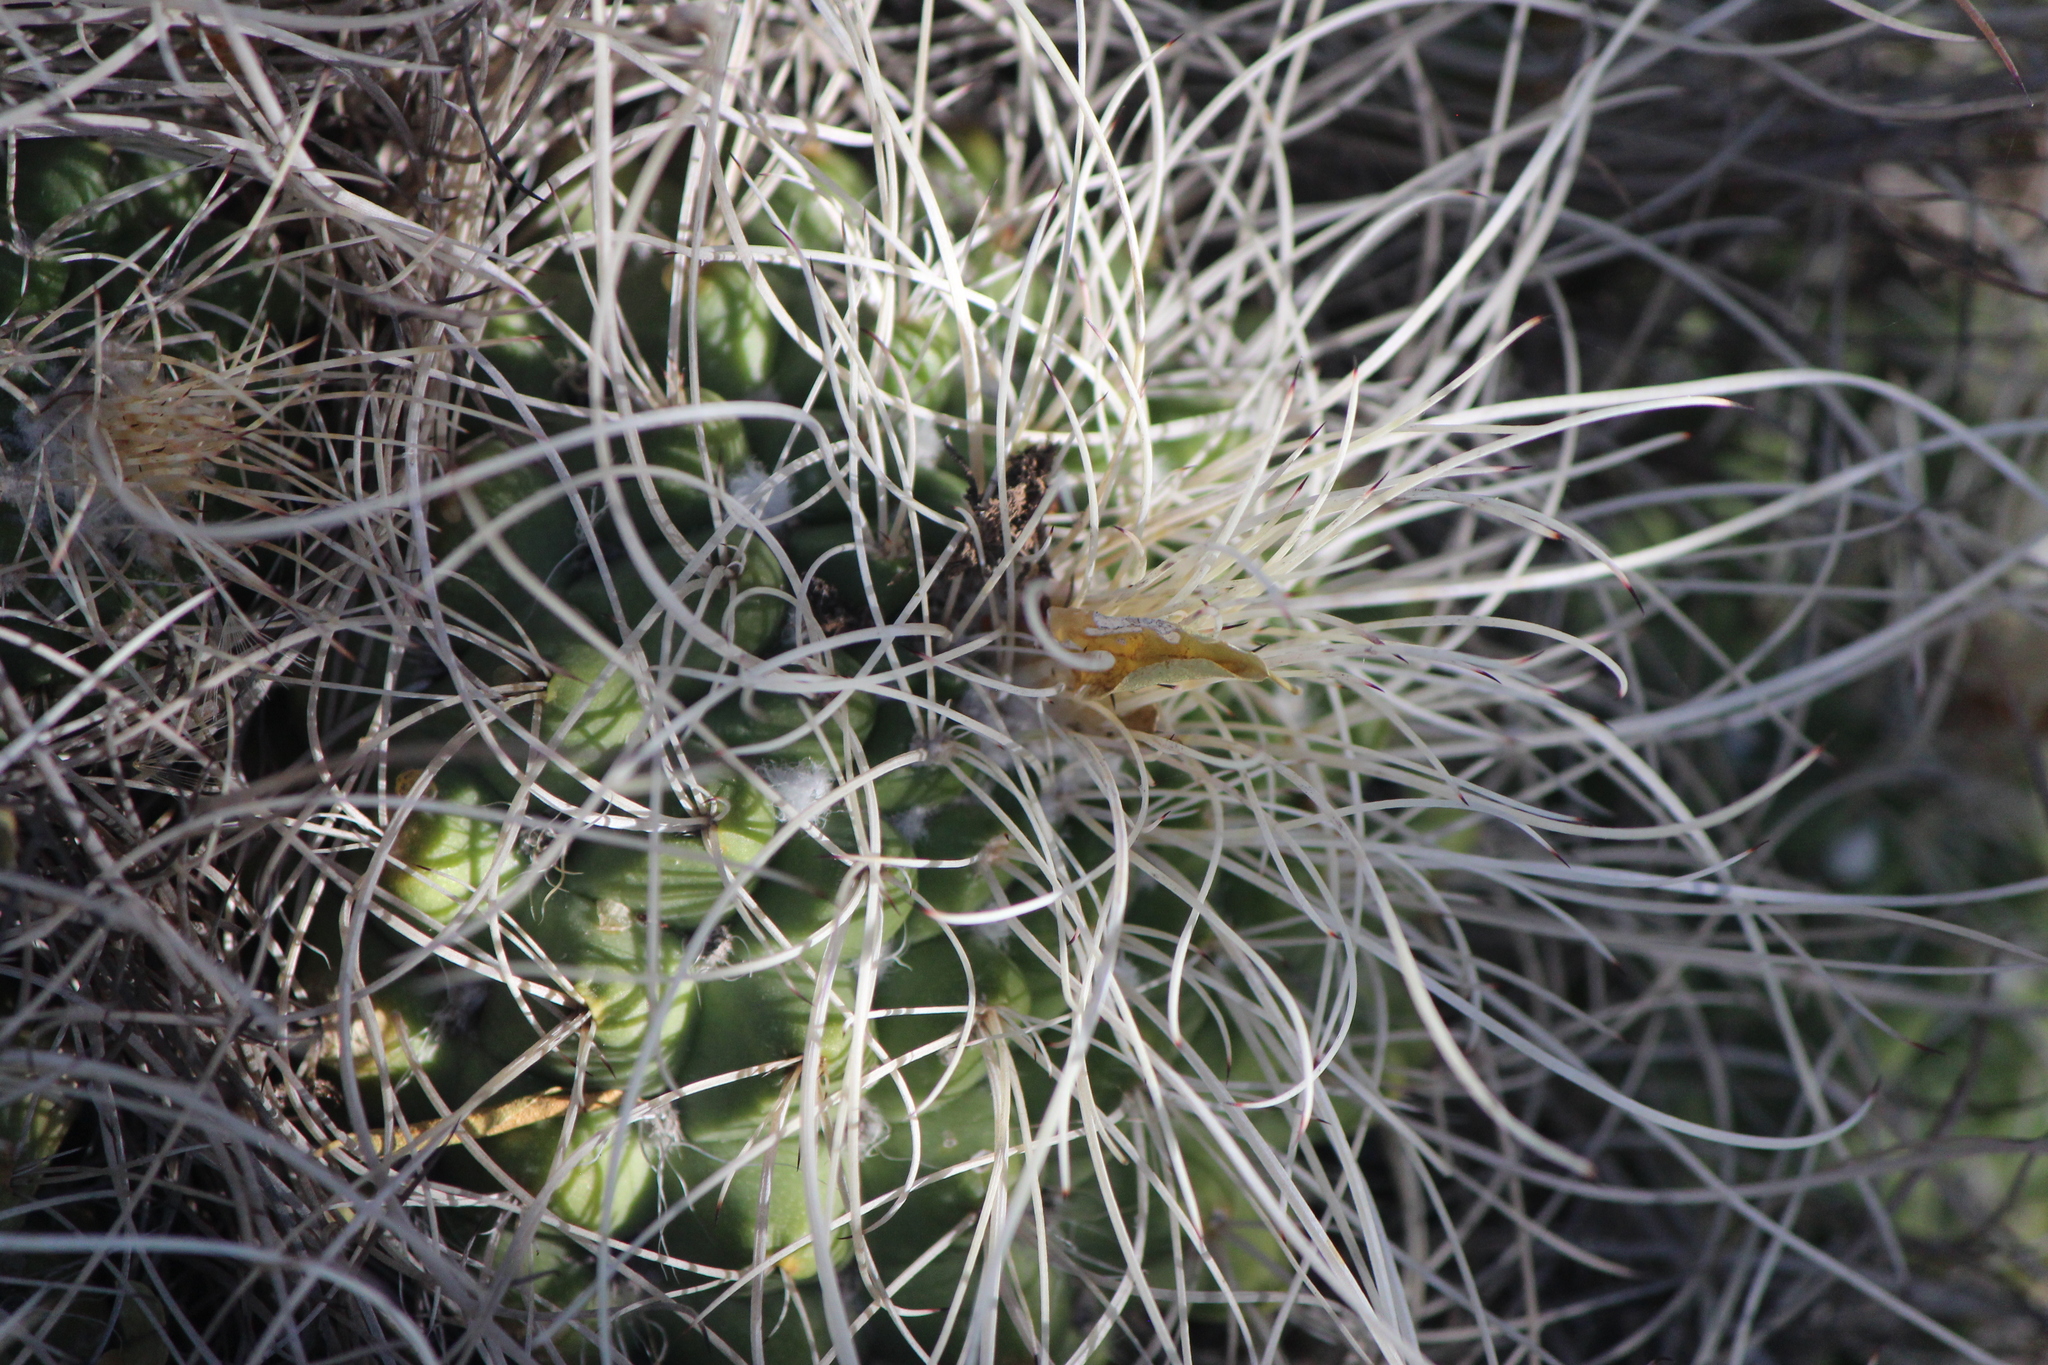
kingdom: Plantae
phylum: Tracheophyta
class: Magnoliopsida
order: Caryophyllales
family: Cactaceae
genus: Mammillaria
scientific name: Mammillaria compressa
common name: Mother-of-hundreds
